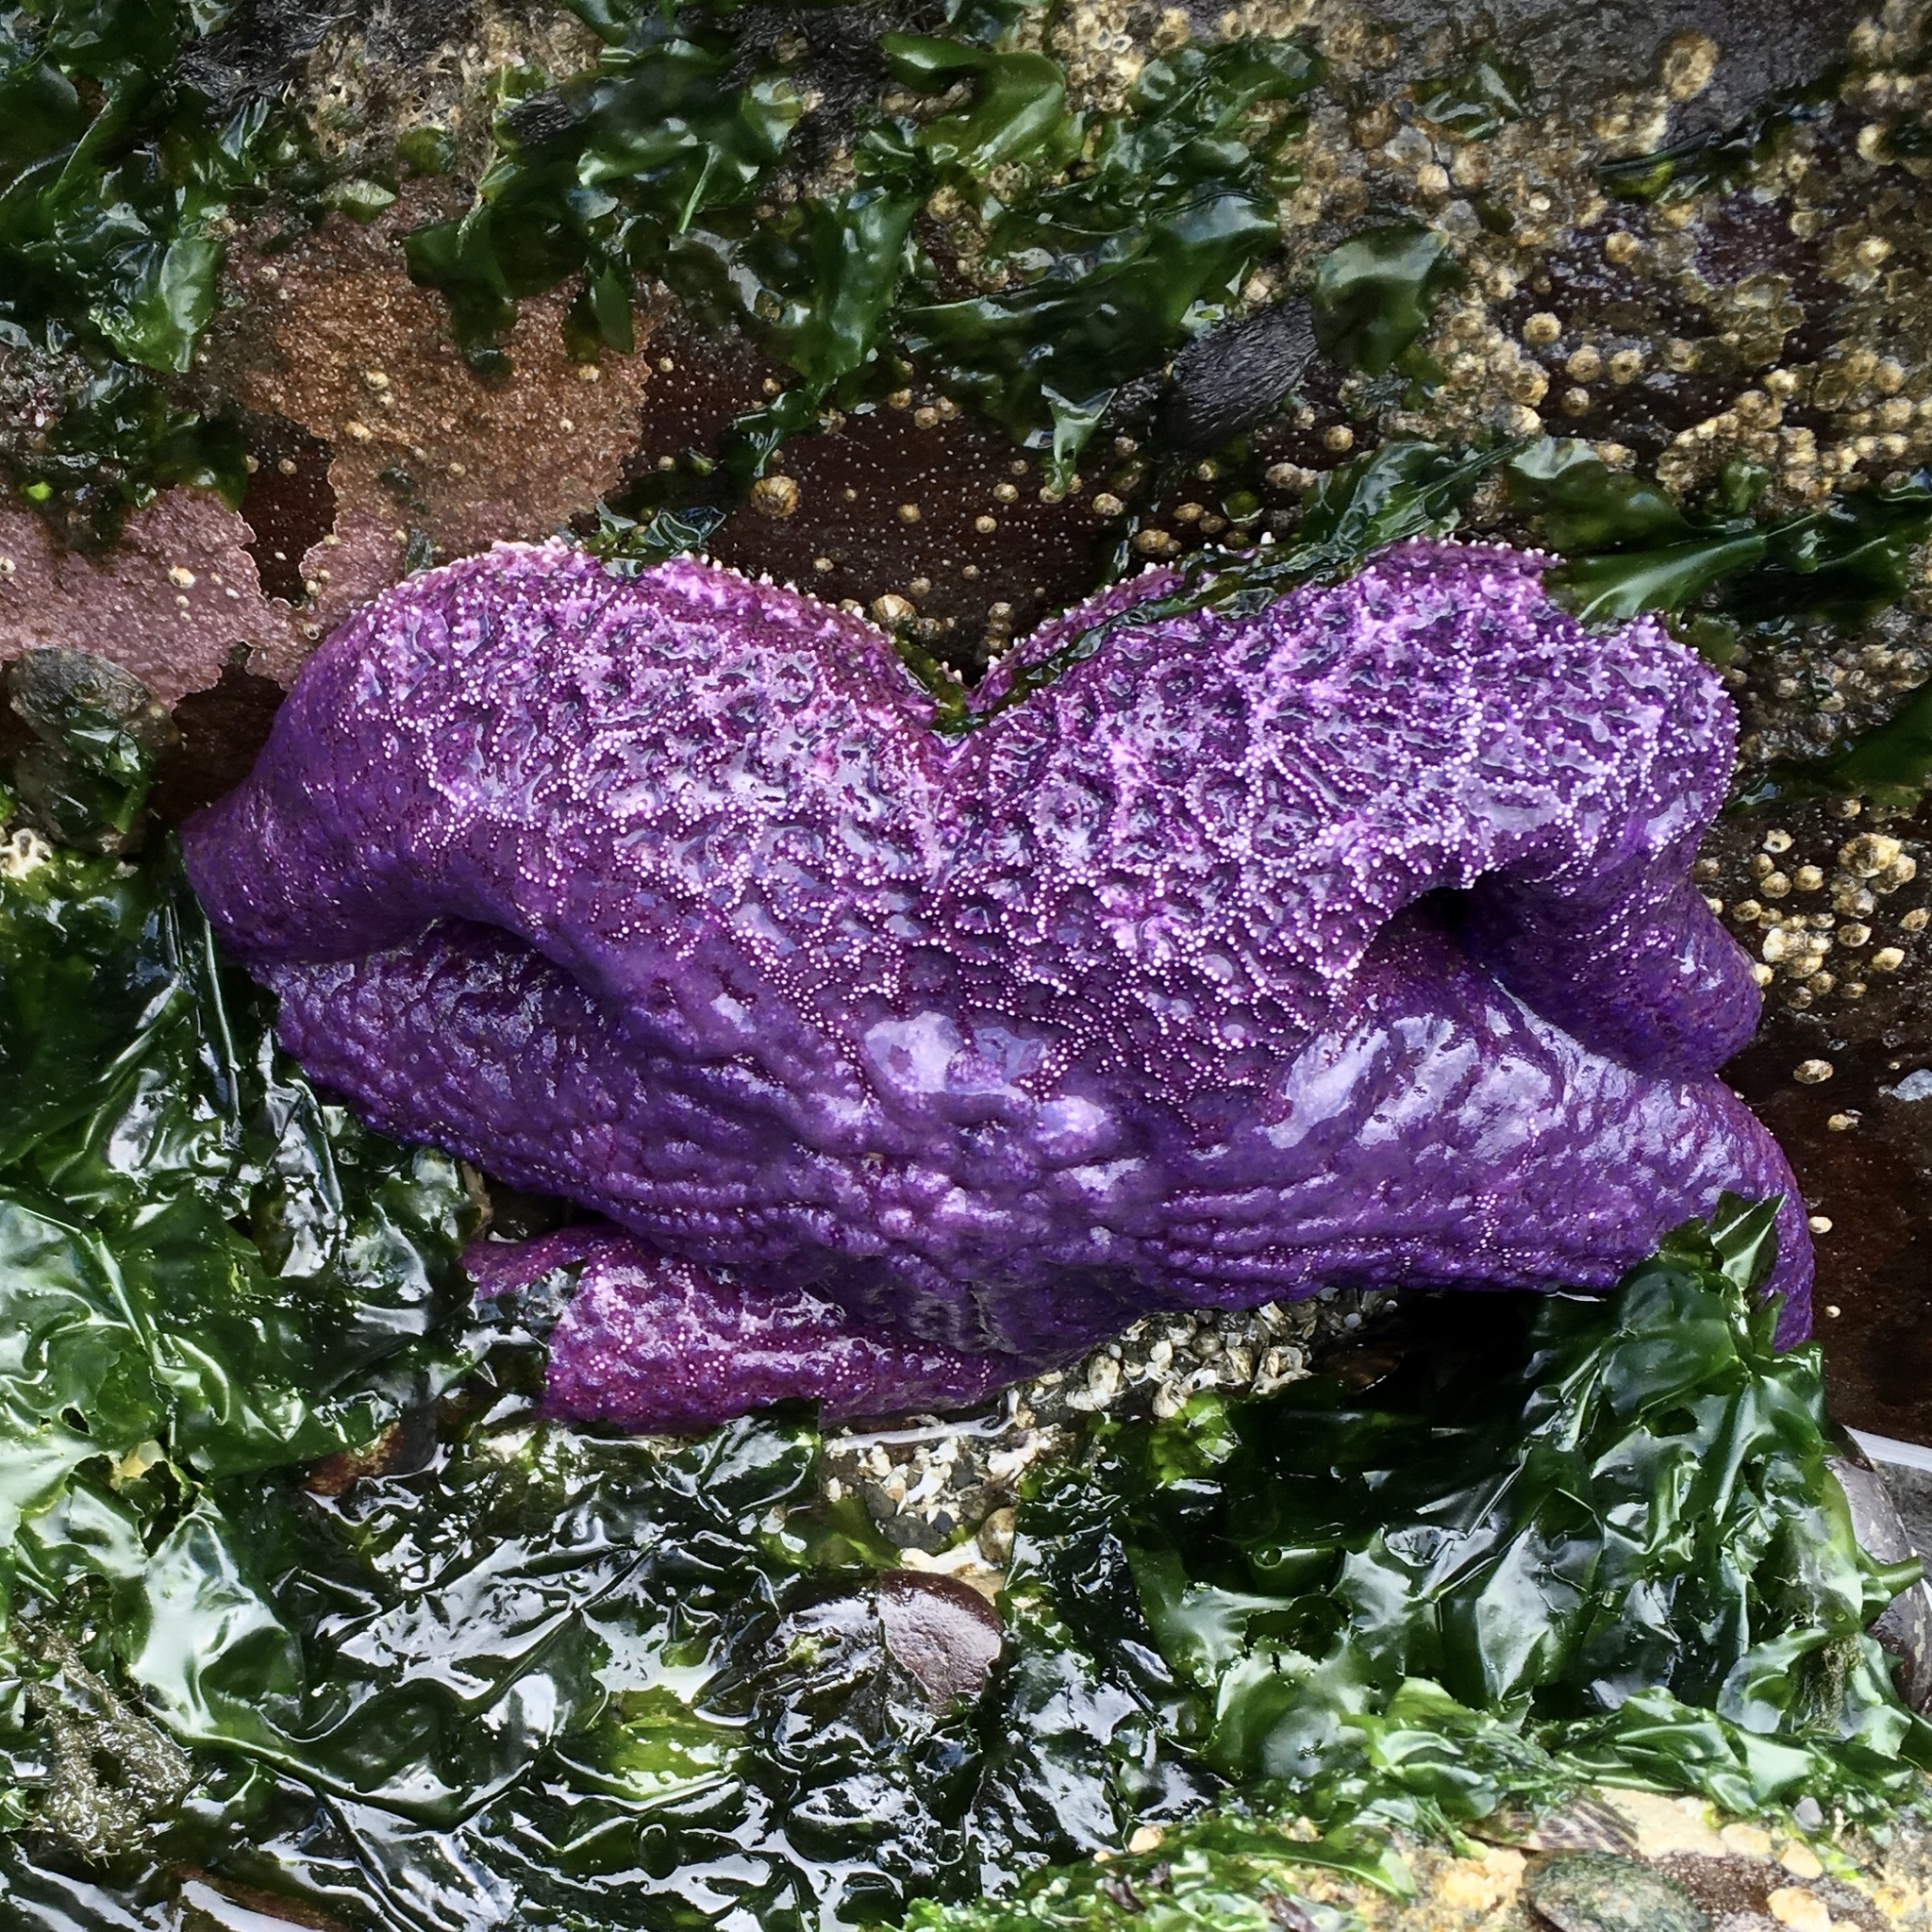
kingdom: Animalia
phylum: Echinodermata
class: Asteroidea
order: Forcipulatida
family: Asteriidae
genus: Pisaster
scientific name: Pisaster ochraceus
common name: Ochre stars
